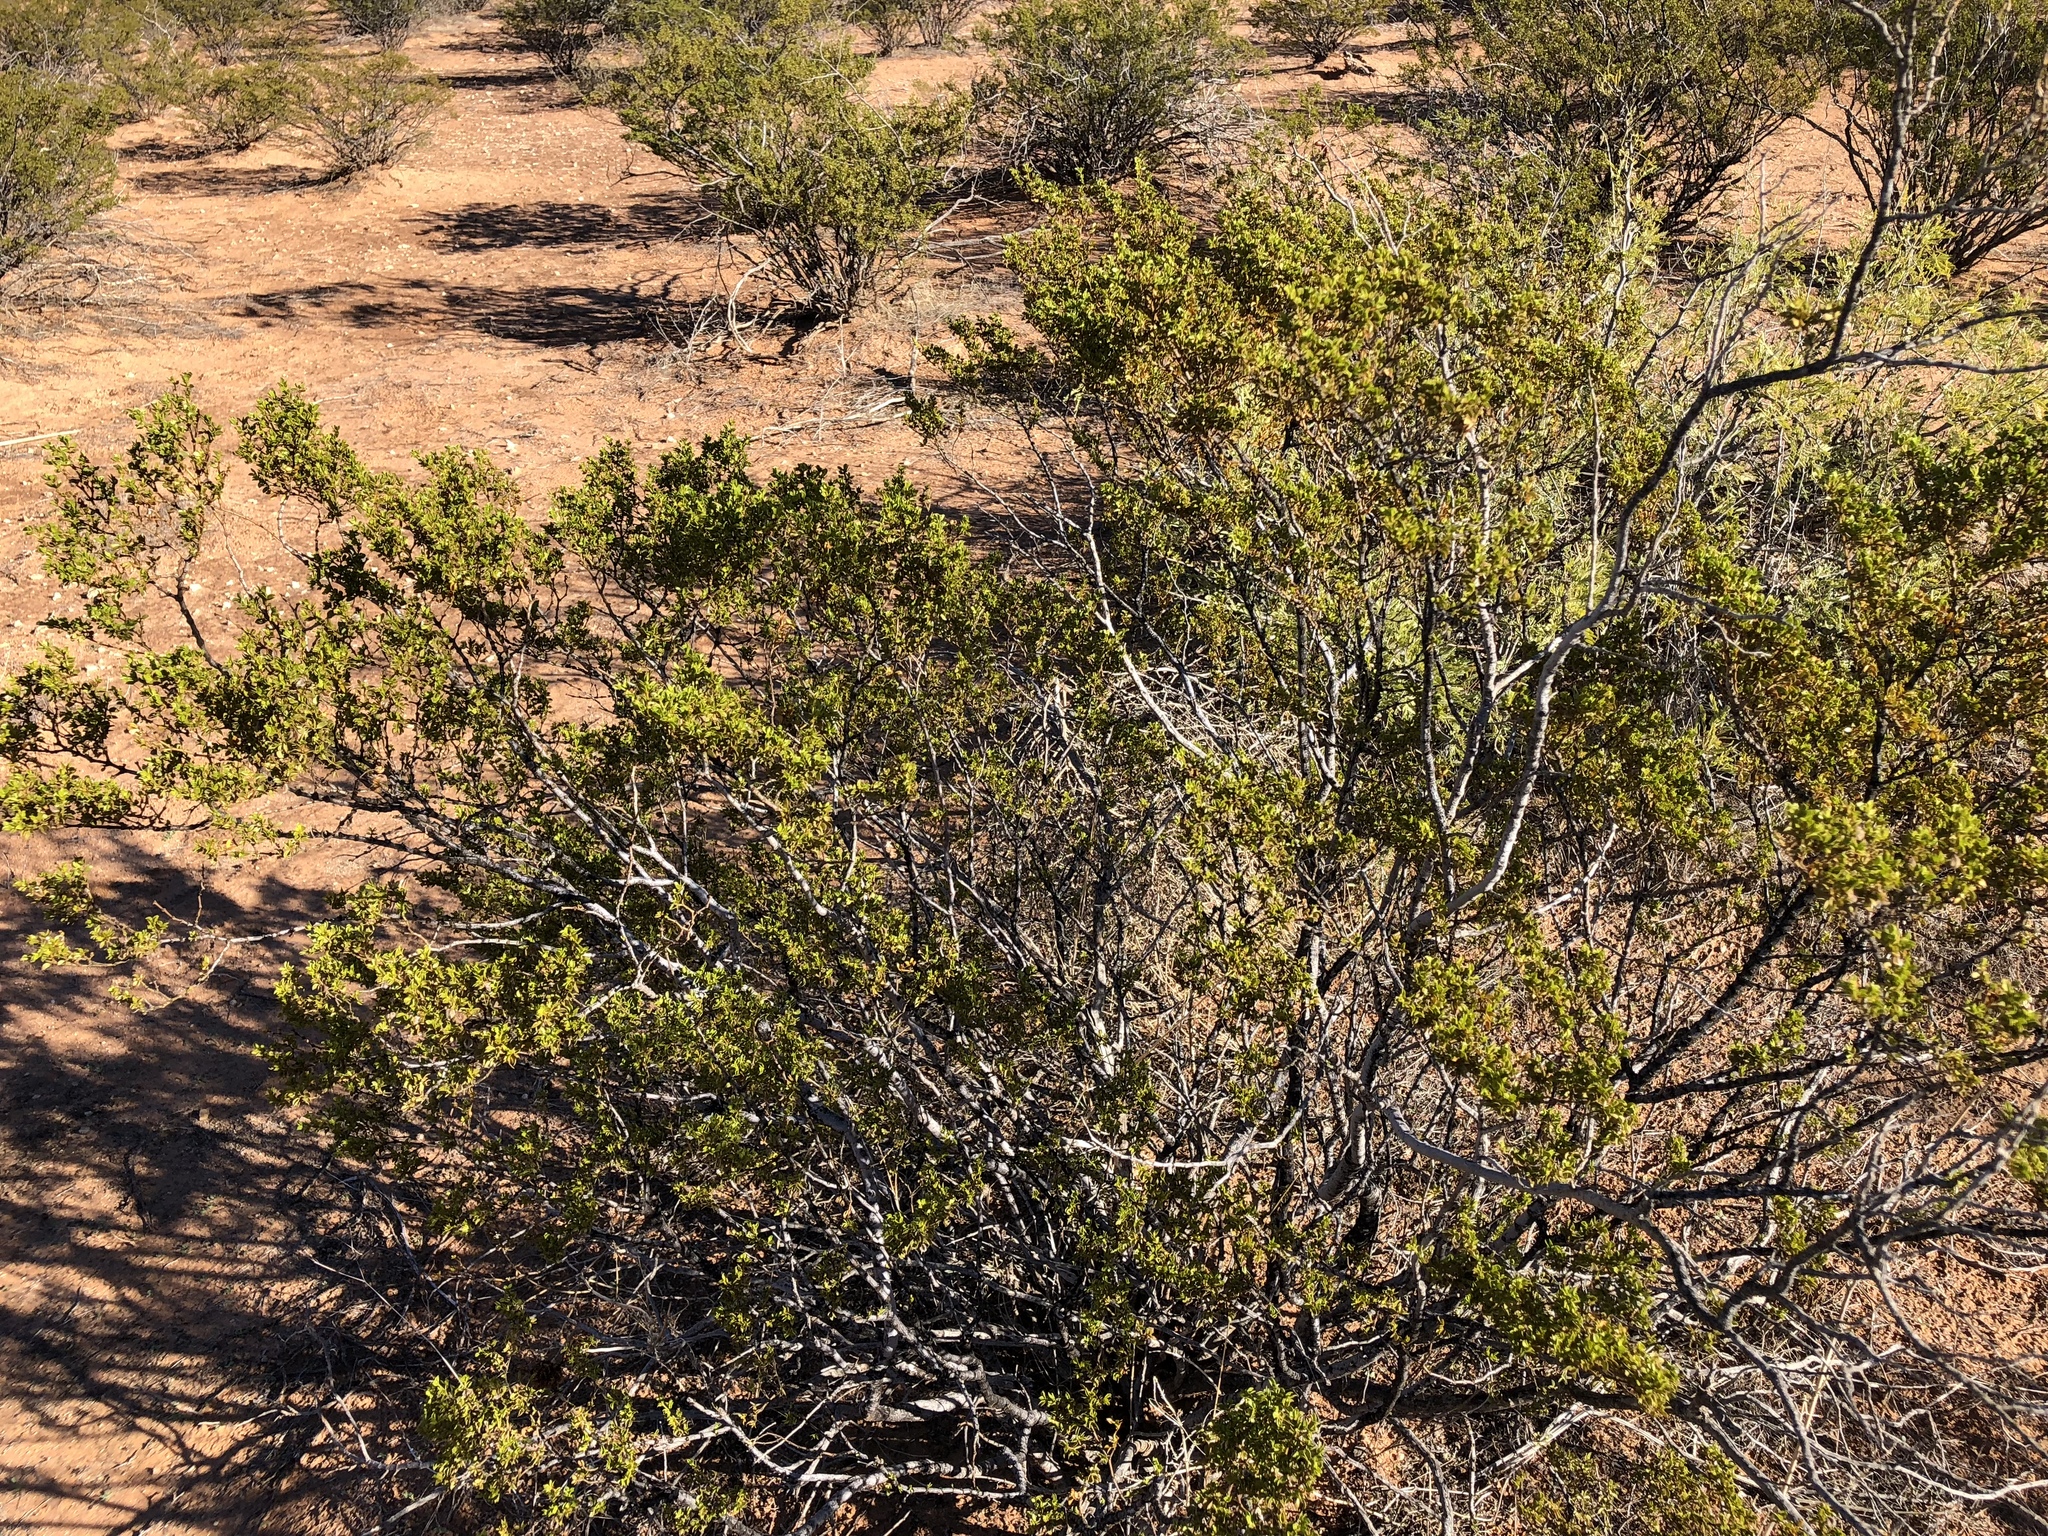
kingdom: Plantae
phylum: Tracheophyta
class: Magnoliopsida
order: Zygophyllales
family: Zygophyllaceae
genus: Larrea
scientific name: Larrea tridentata
